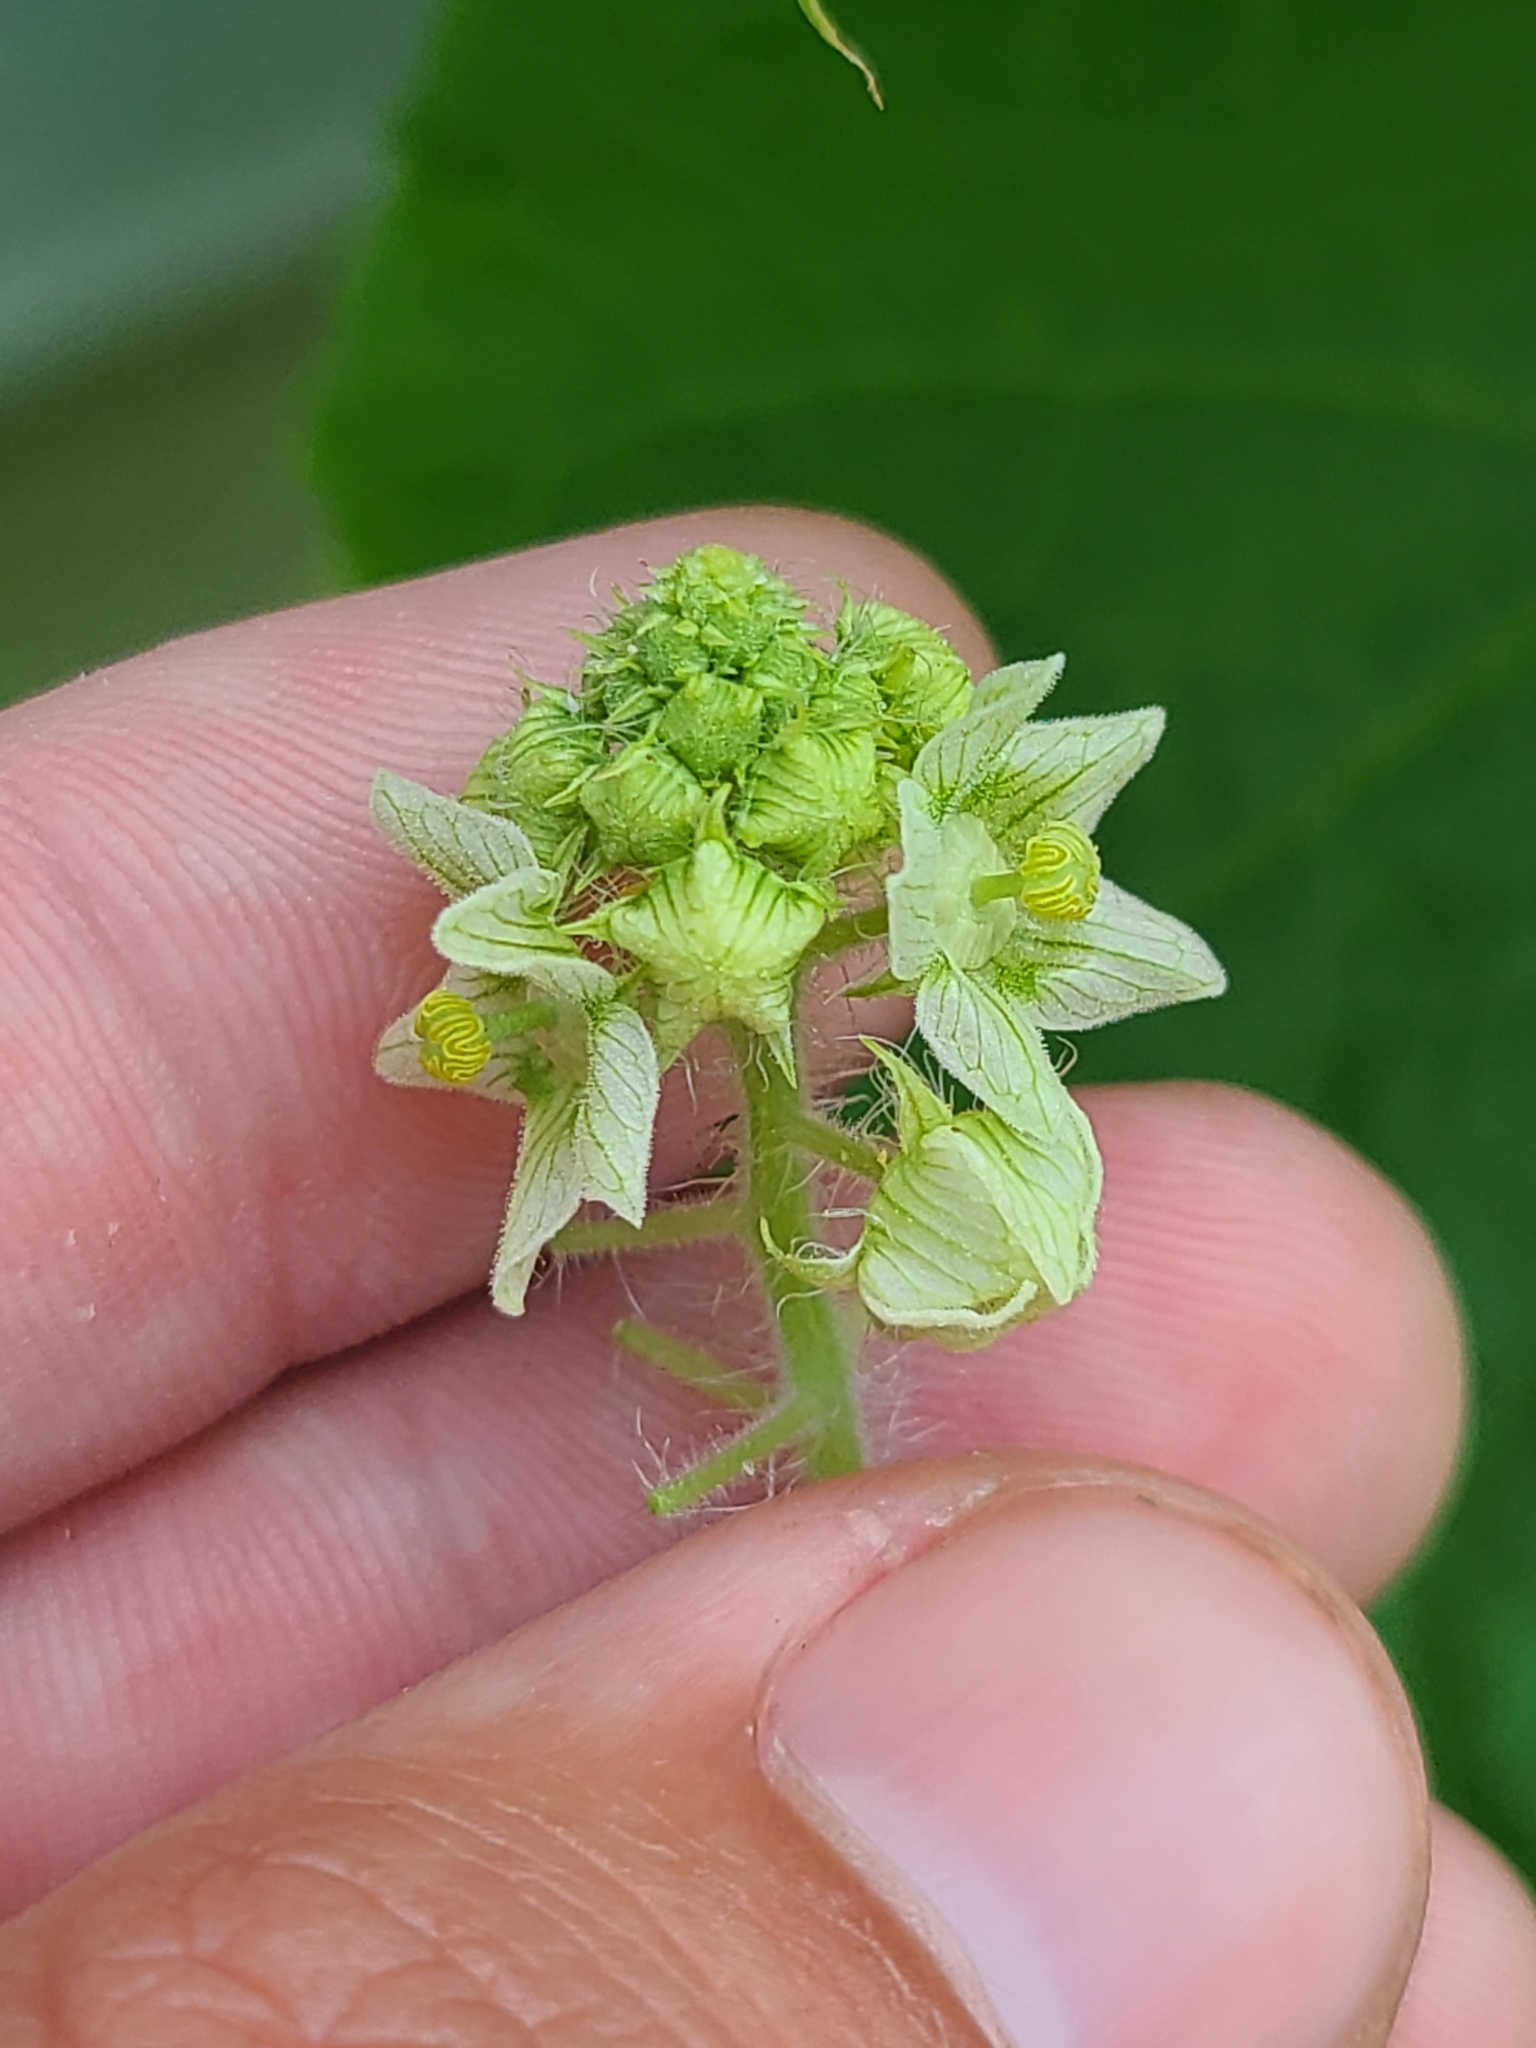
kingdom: Plantae
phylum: Tracheophyta
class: Magnoliopsida
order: Cucurbitales
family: Cucurbitaceae
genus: Sicyos
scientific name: Sicyos angulatus
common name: Angled burr cucumber
